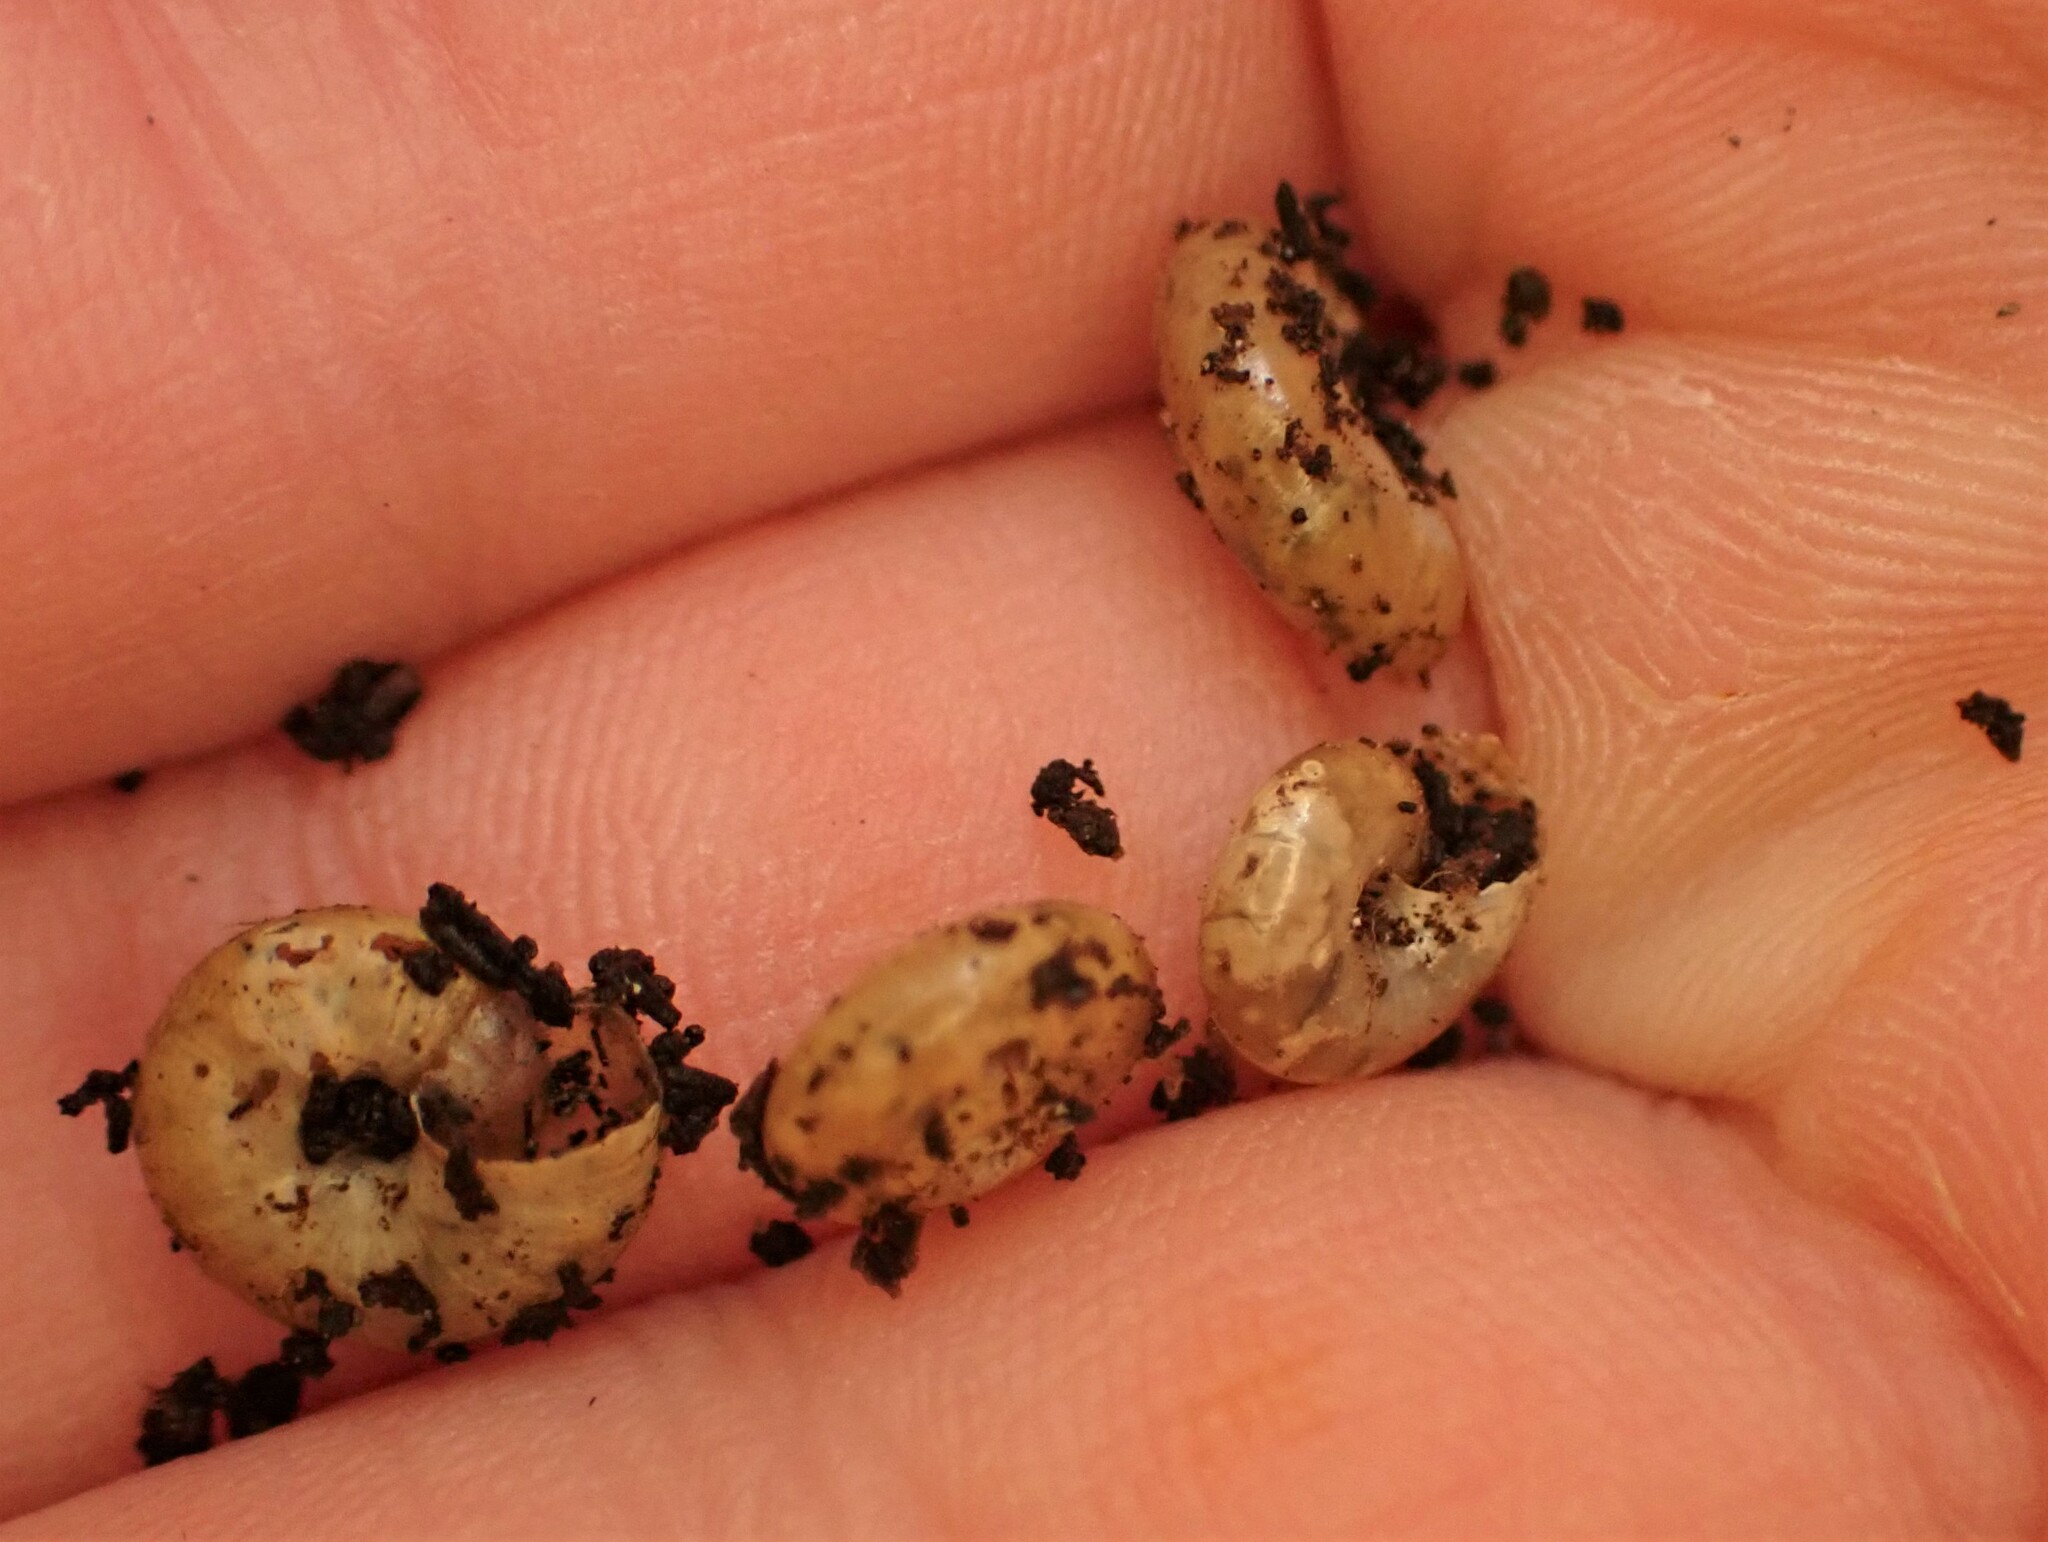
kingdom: Animalia
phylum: Mollusca
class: Gastropoda
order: Stylommatophora
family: Oxychilidae
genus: Oxychilus
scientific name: Oxychilus cellarius
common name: Cellar glass-snail
